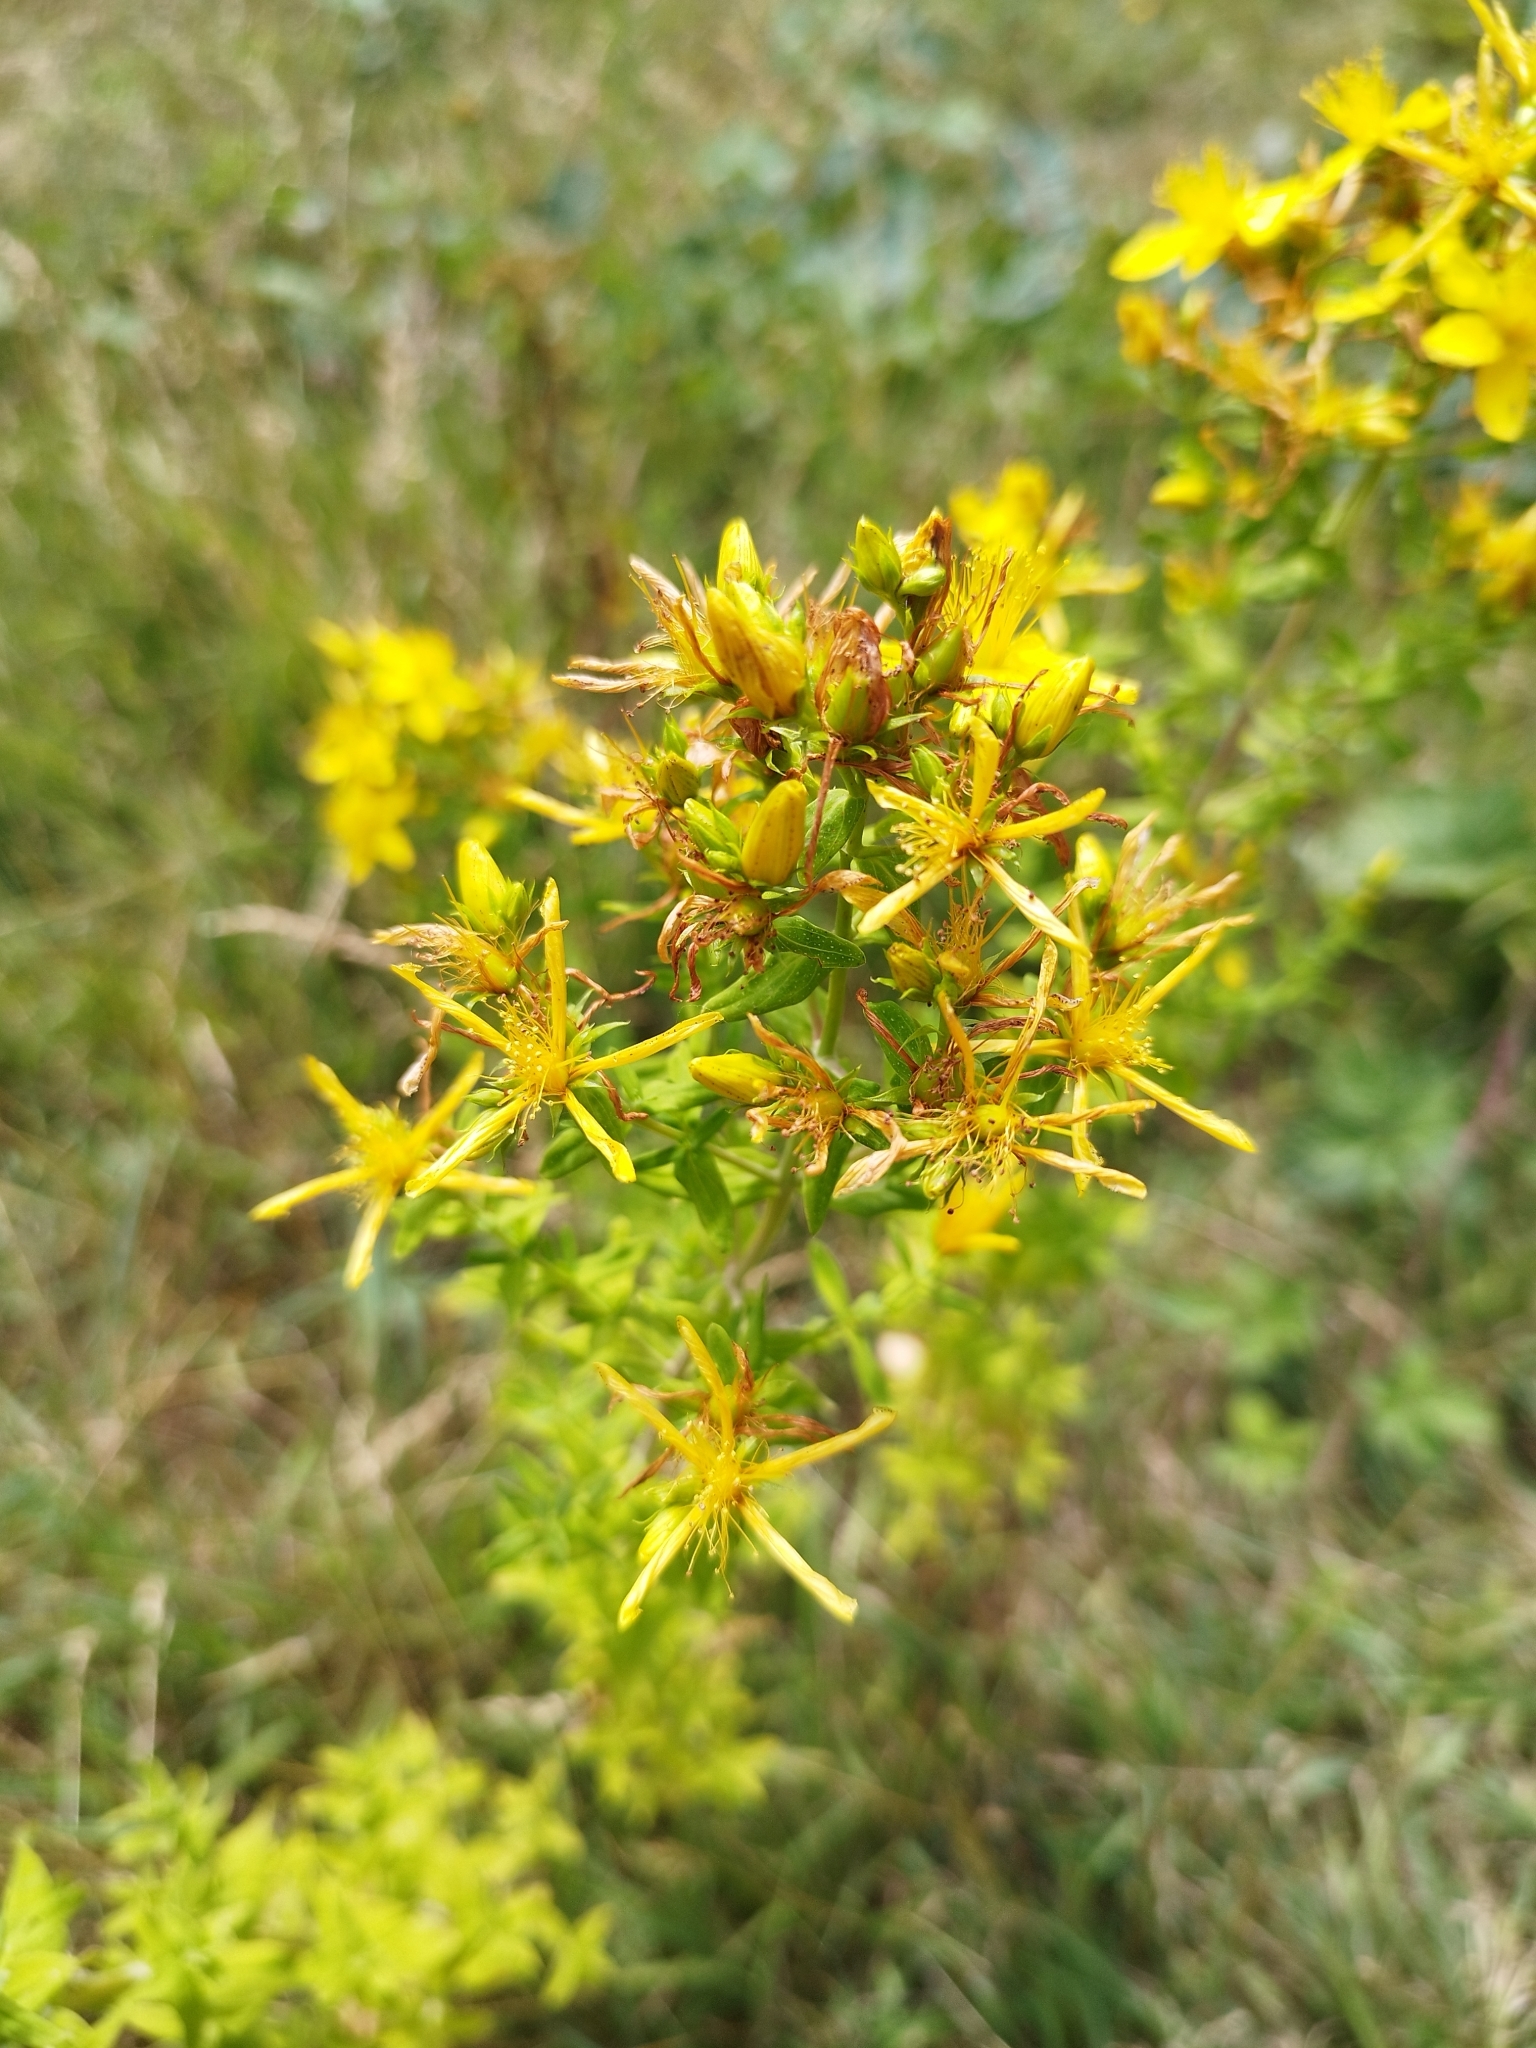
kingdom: Plantae
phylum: Tracheophyta
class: Magnoliopsida
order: Malpighiales
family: Hypericaceae
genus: Hypericum
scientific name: Hypericum perforatum
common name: Common st. johnswort
